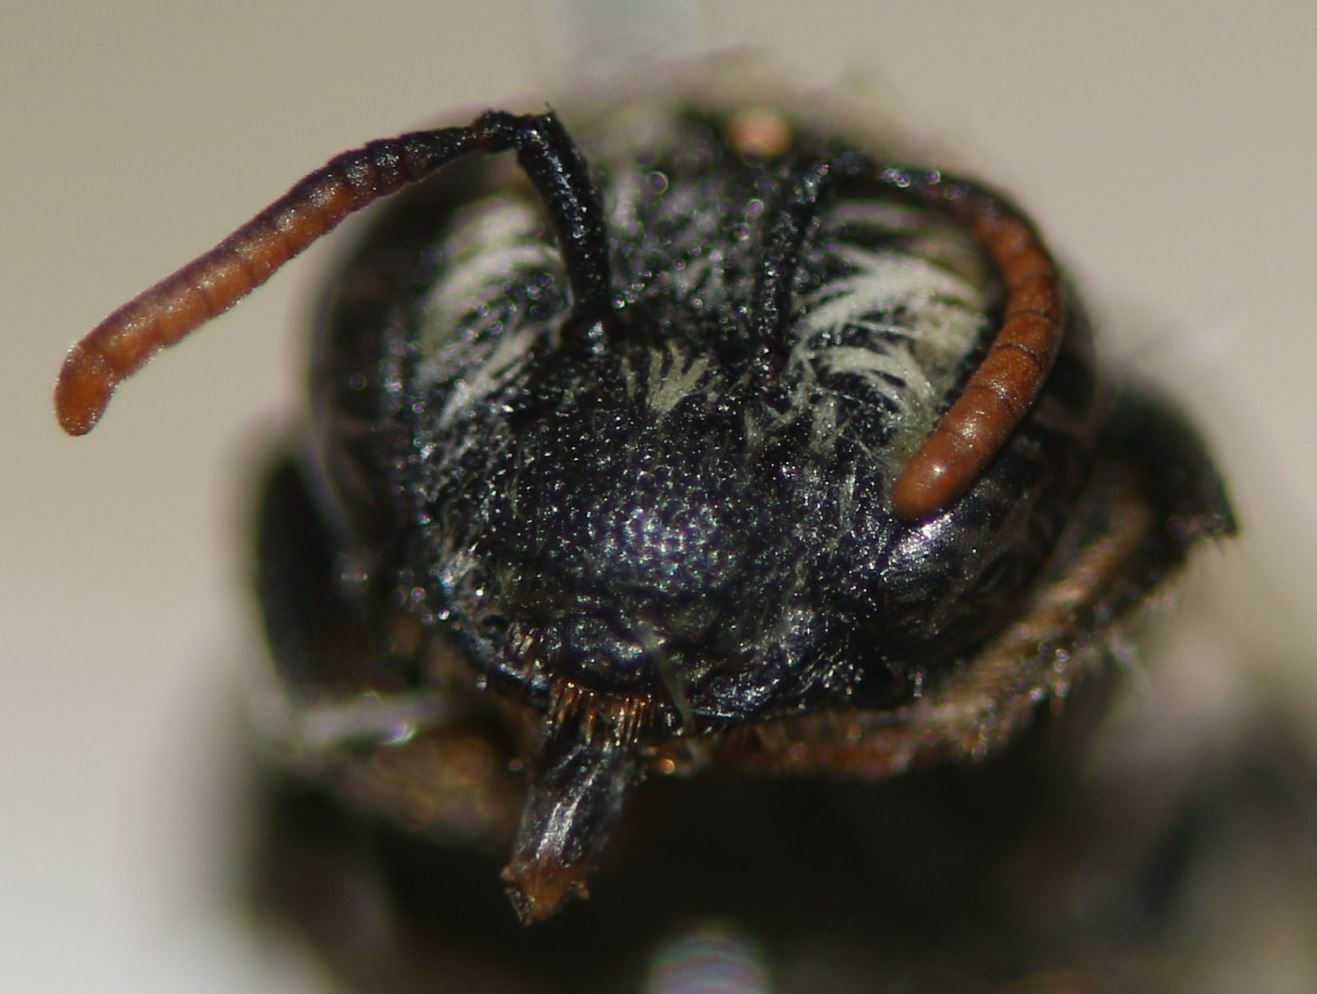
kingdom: Animalia
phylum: Arthropoda
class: Insecta
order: Hymenoptera
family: Andrenidae
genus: Andrena
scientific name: Andrena colletiformis
